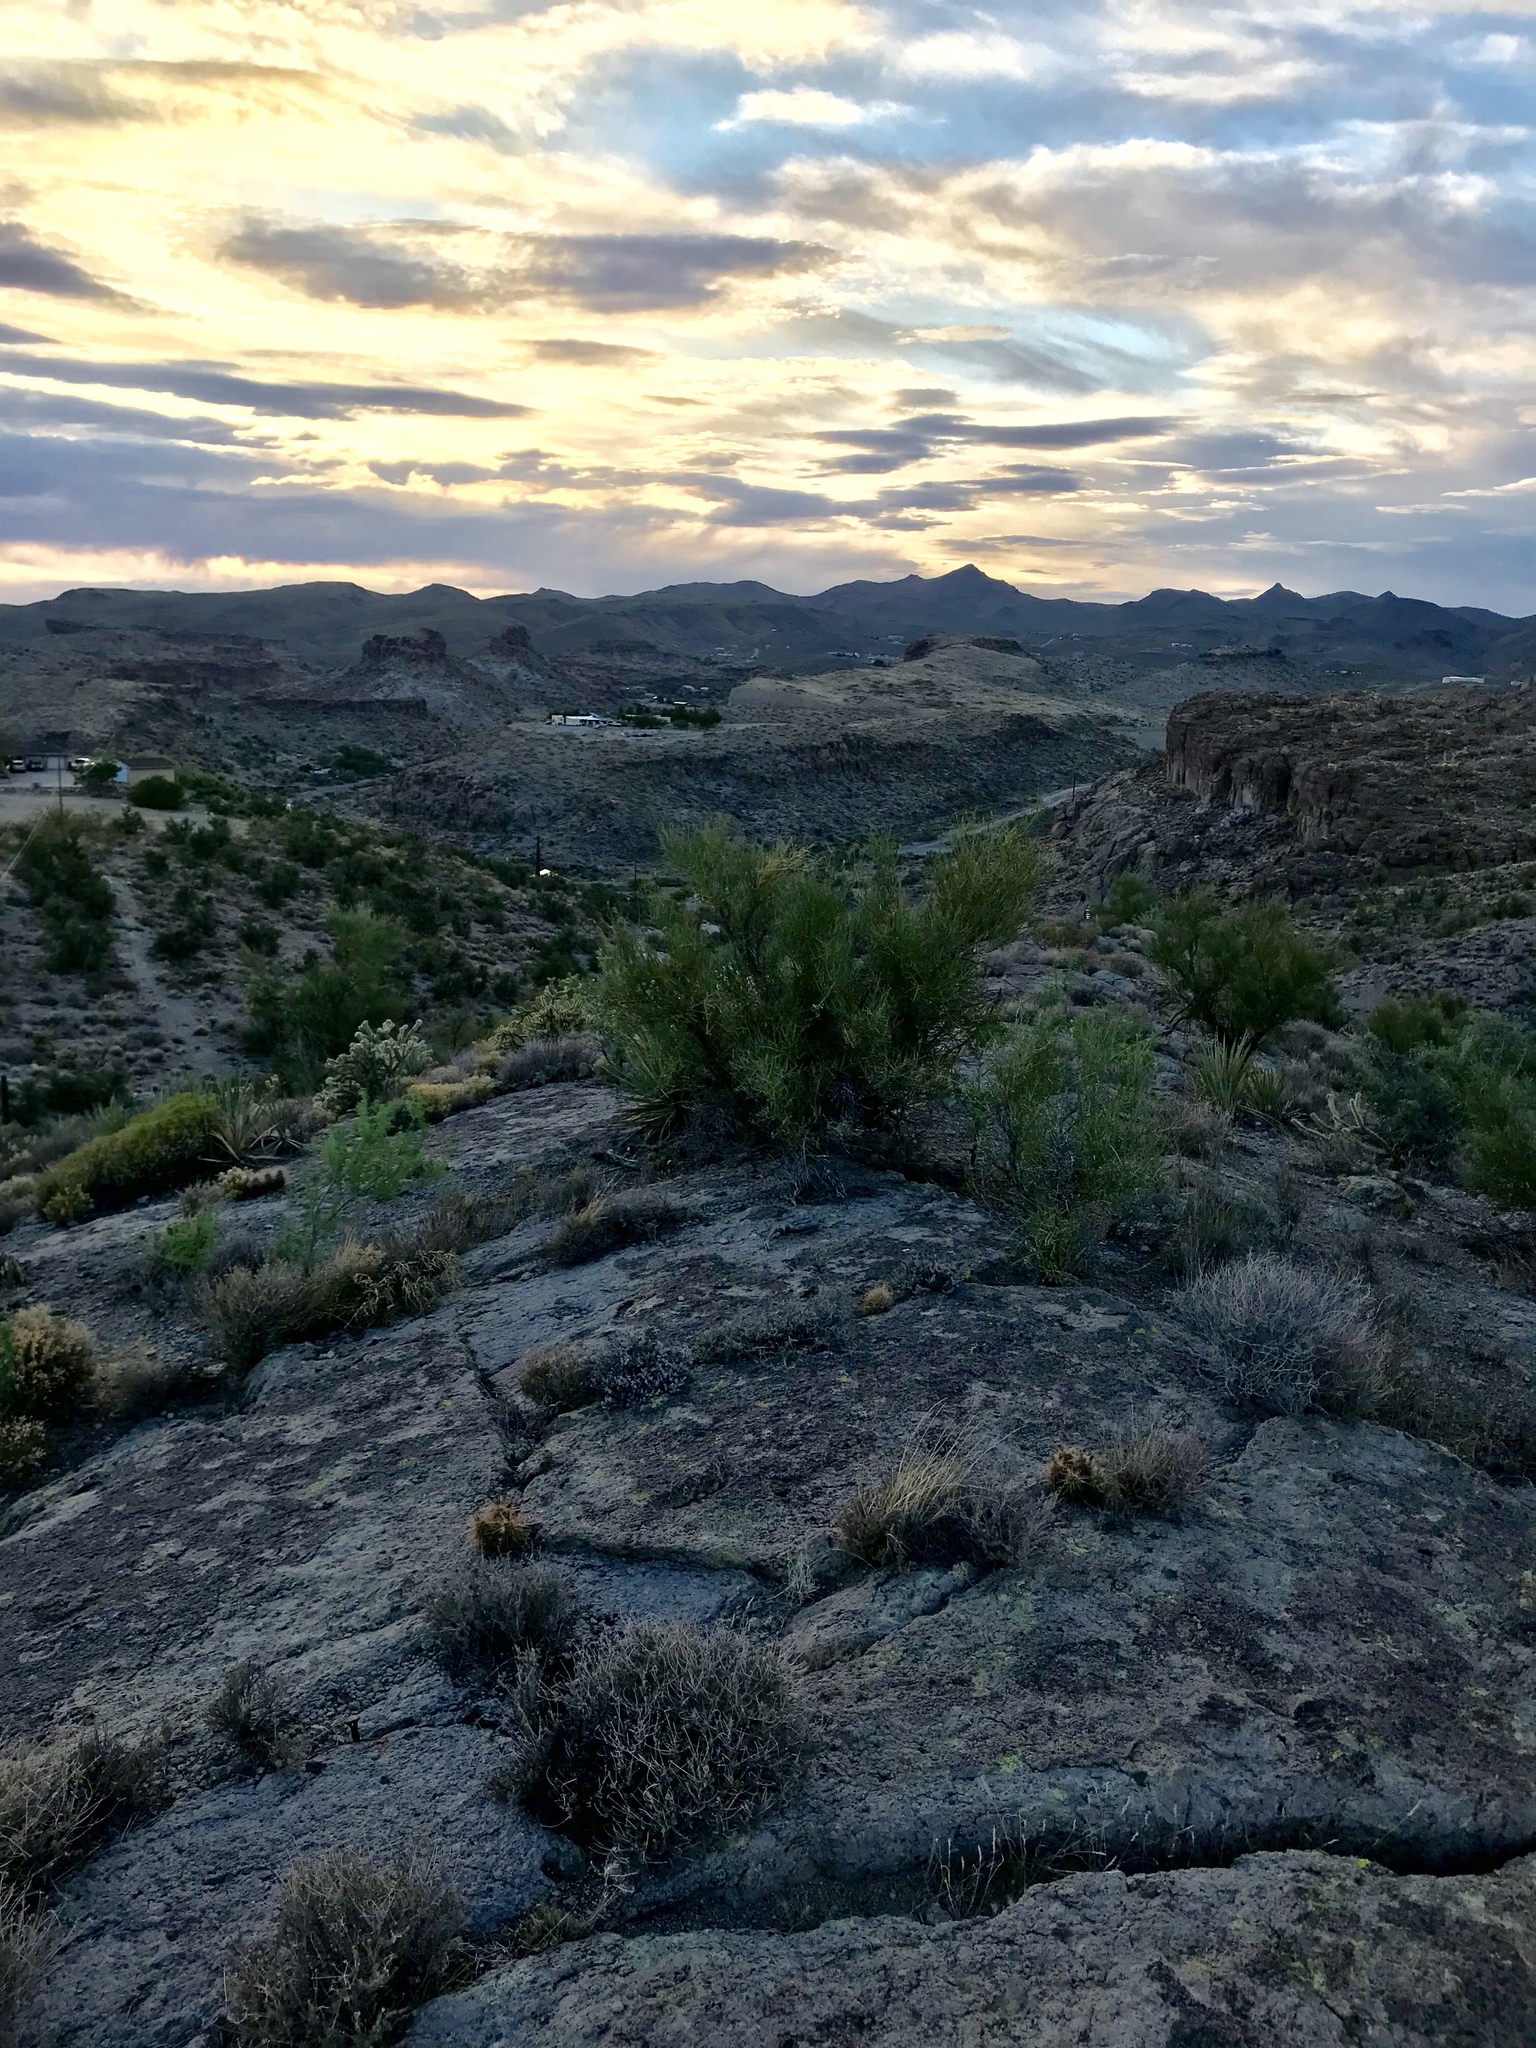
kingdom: Plantae
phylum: Tracheophyta
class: Magnoliopsida
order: Celastrales
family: Celastraceae
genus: Canotia
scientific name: Canotia holacantha
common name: Crucifixion thorns
